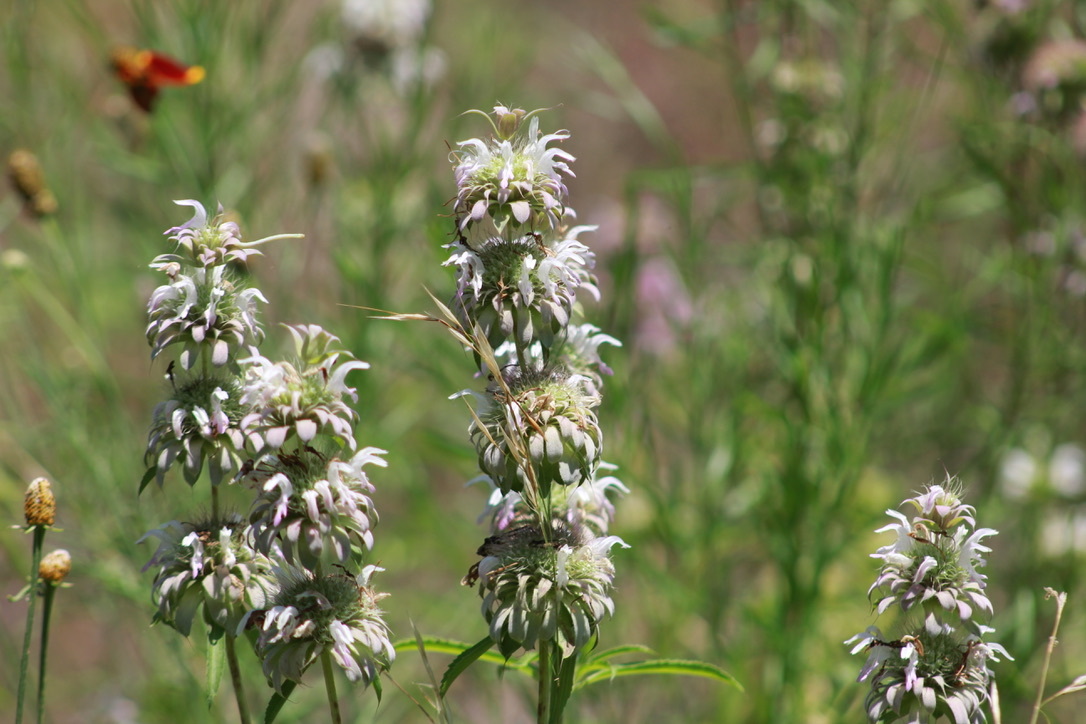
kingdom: Plantae
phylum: Tracheophyta
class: Magnoliopsida
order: Lamiales
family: Lamiaceae
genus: Monarda
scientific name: Monarda citriodora
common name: Lemon beebalm
